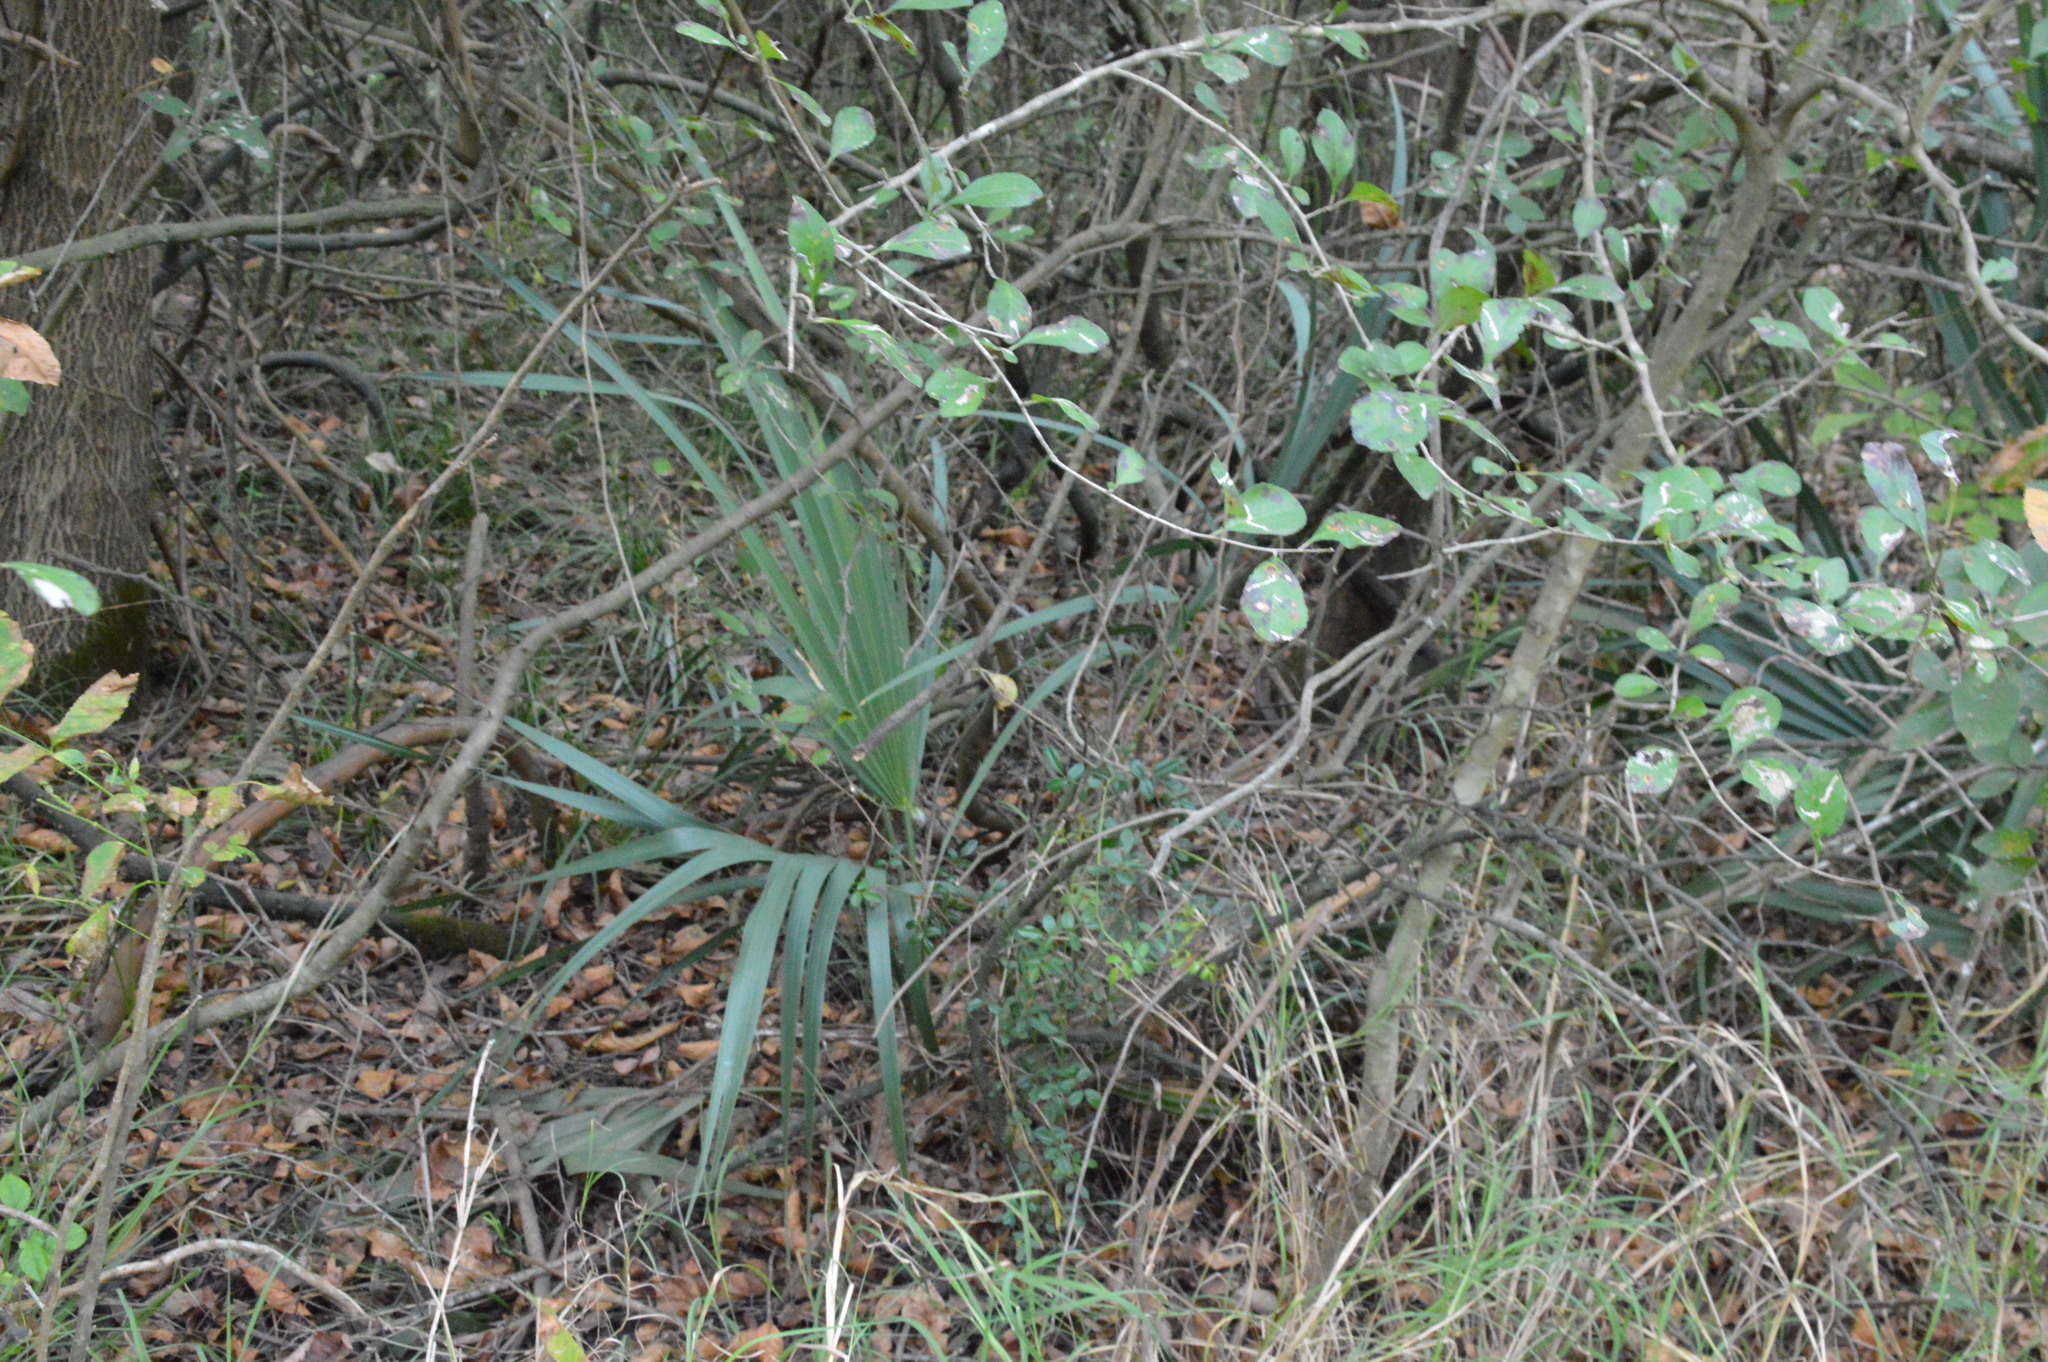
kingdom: Plantae
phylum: Tracheophyta
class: Liliopsida
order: Arecales
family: Arecaceae
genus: Sabal
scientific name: Sabal minor
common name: Dwarf palmetto
